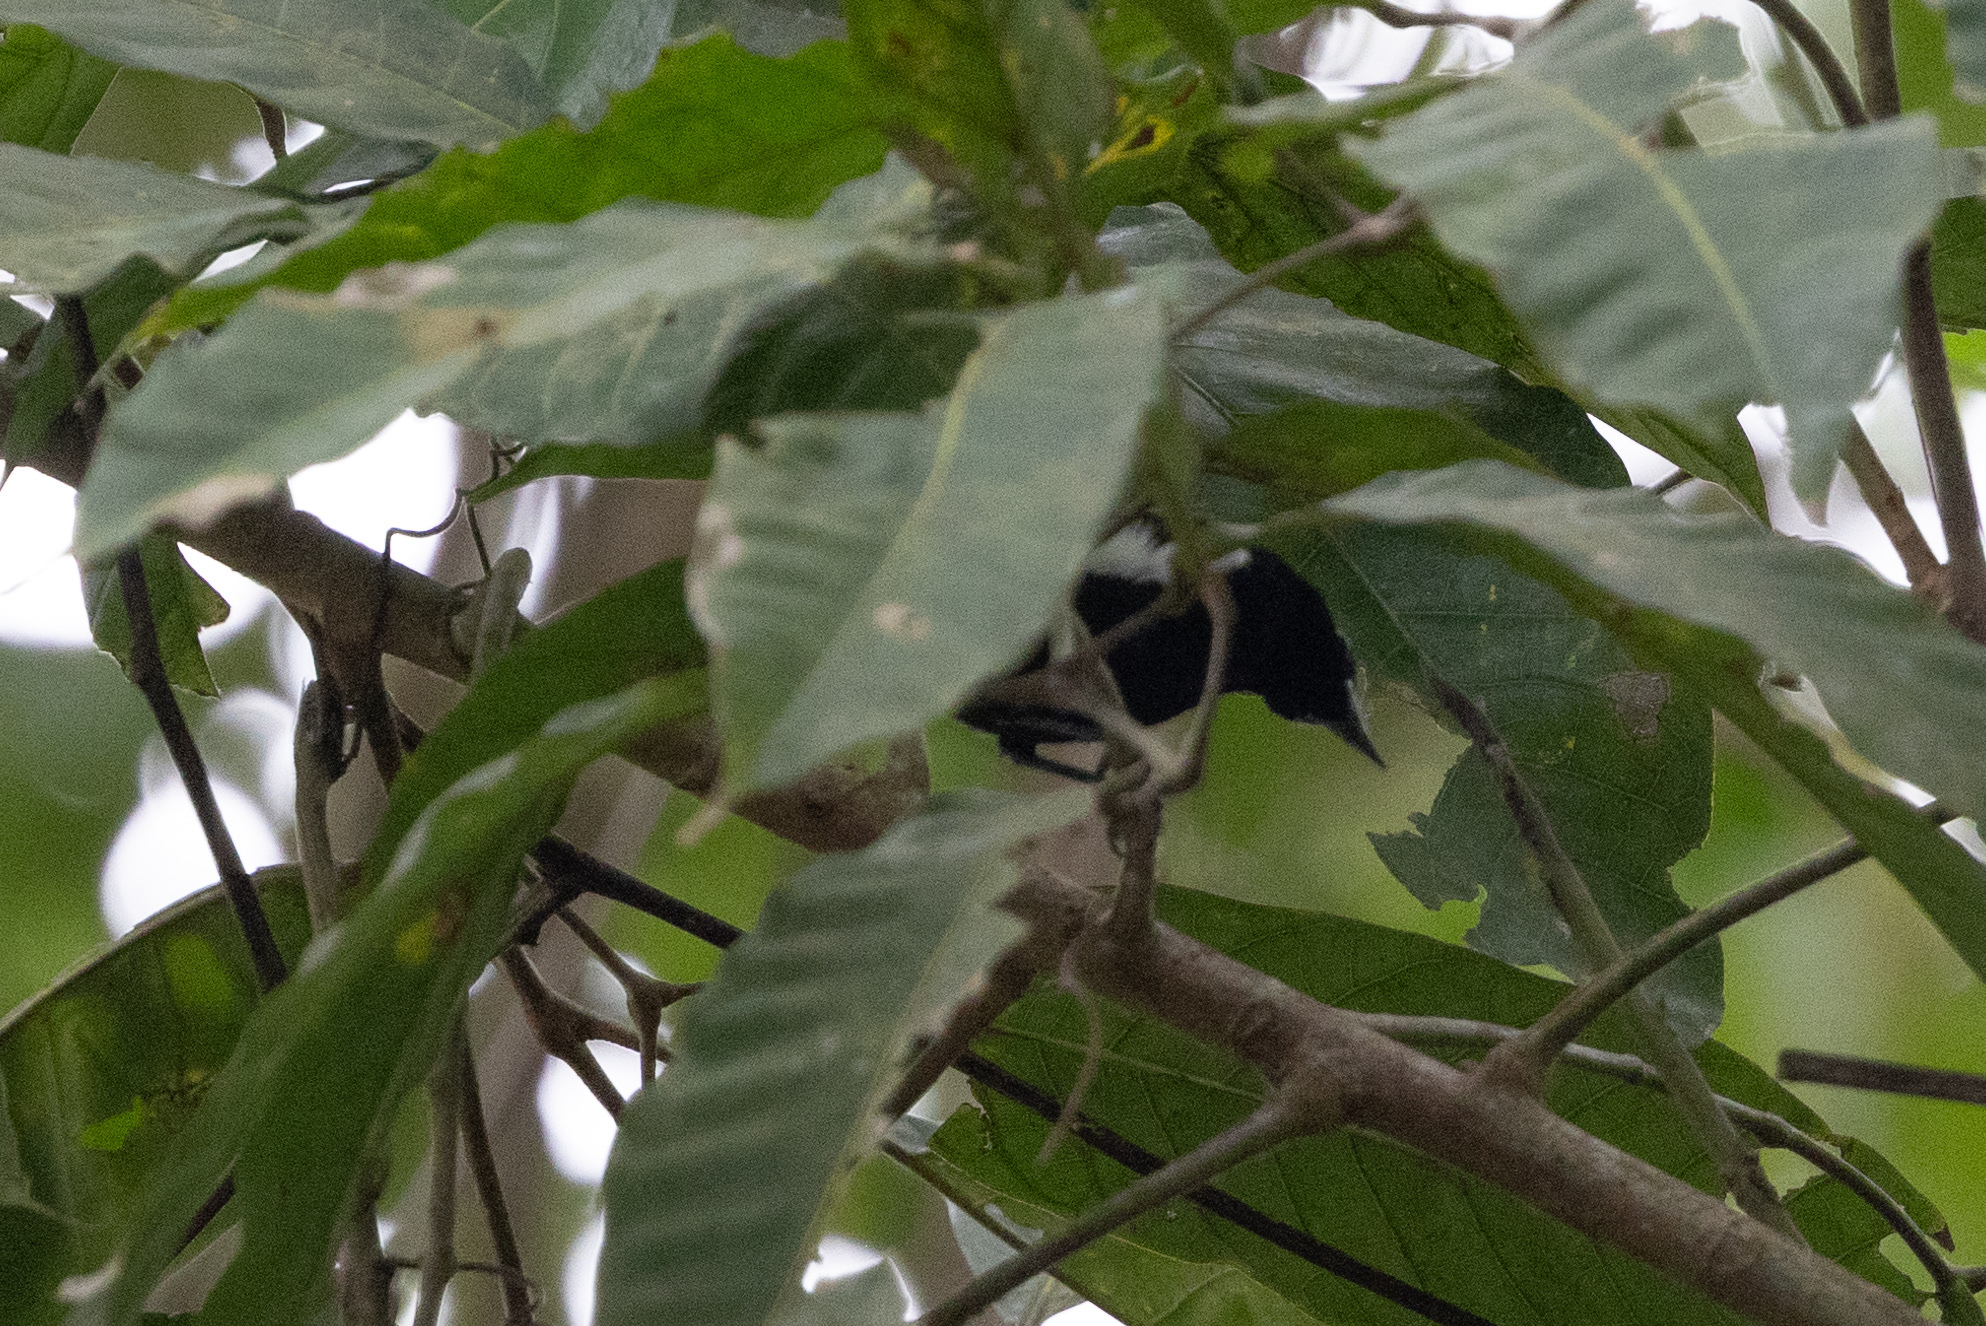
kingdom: Animalia
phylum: Chordata
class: Aves
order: Passeriformes
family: Thraupidae
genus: Loriotus
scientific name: Loriotus luctuosus
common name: White-shouldered tanager
